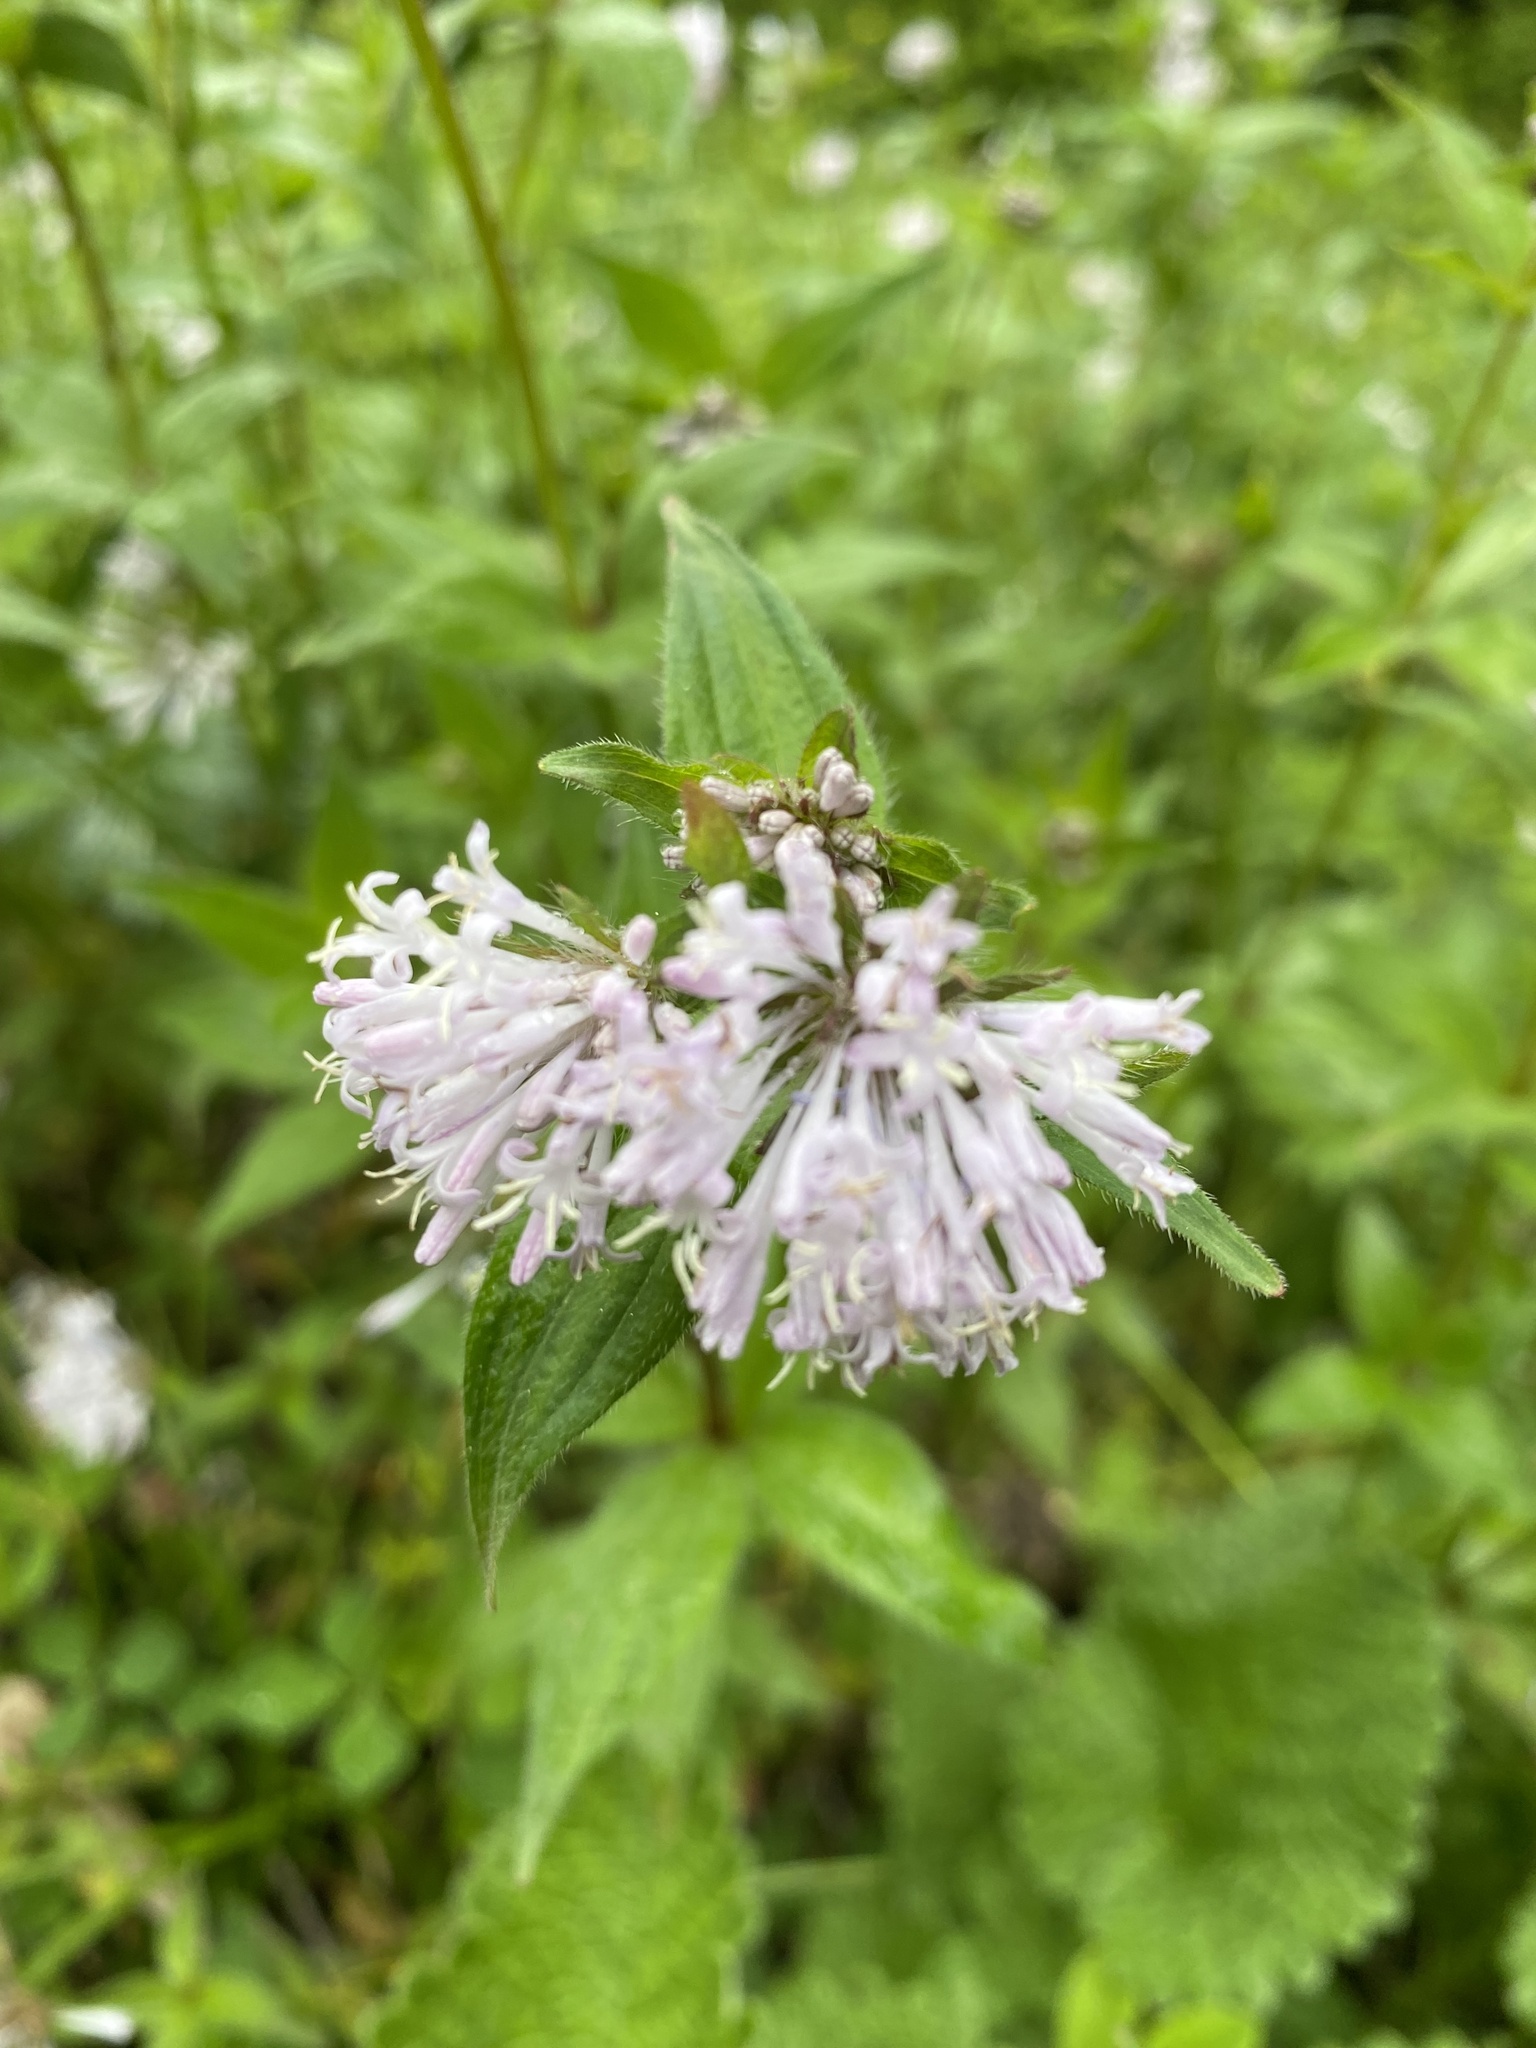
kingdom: Plantae
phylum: Tracheophyta
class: Magnoliopsida
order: Gentianales
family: Rubiaceae
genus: Asperula
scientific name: Asperula taurina
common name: Pink woodruff
